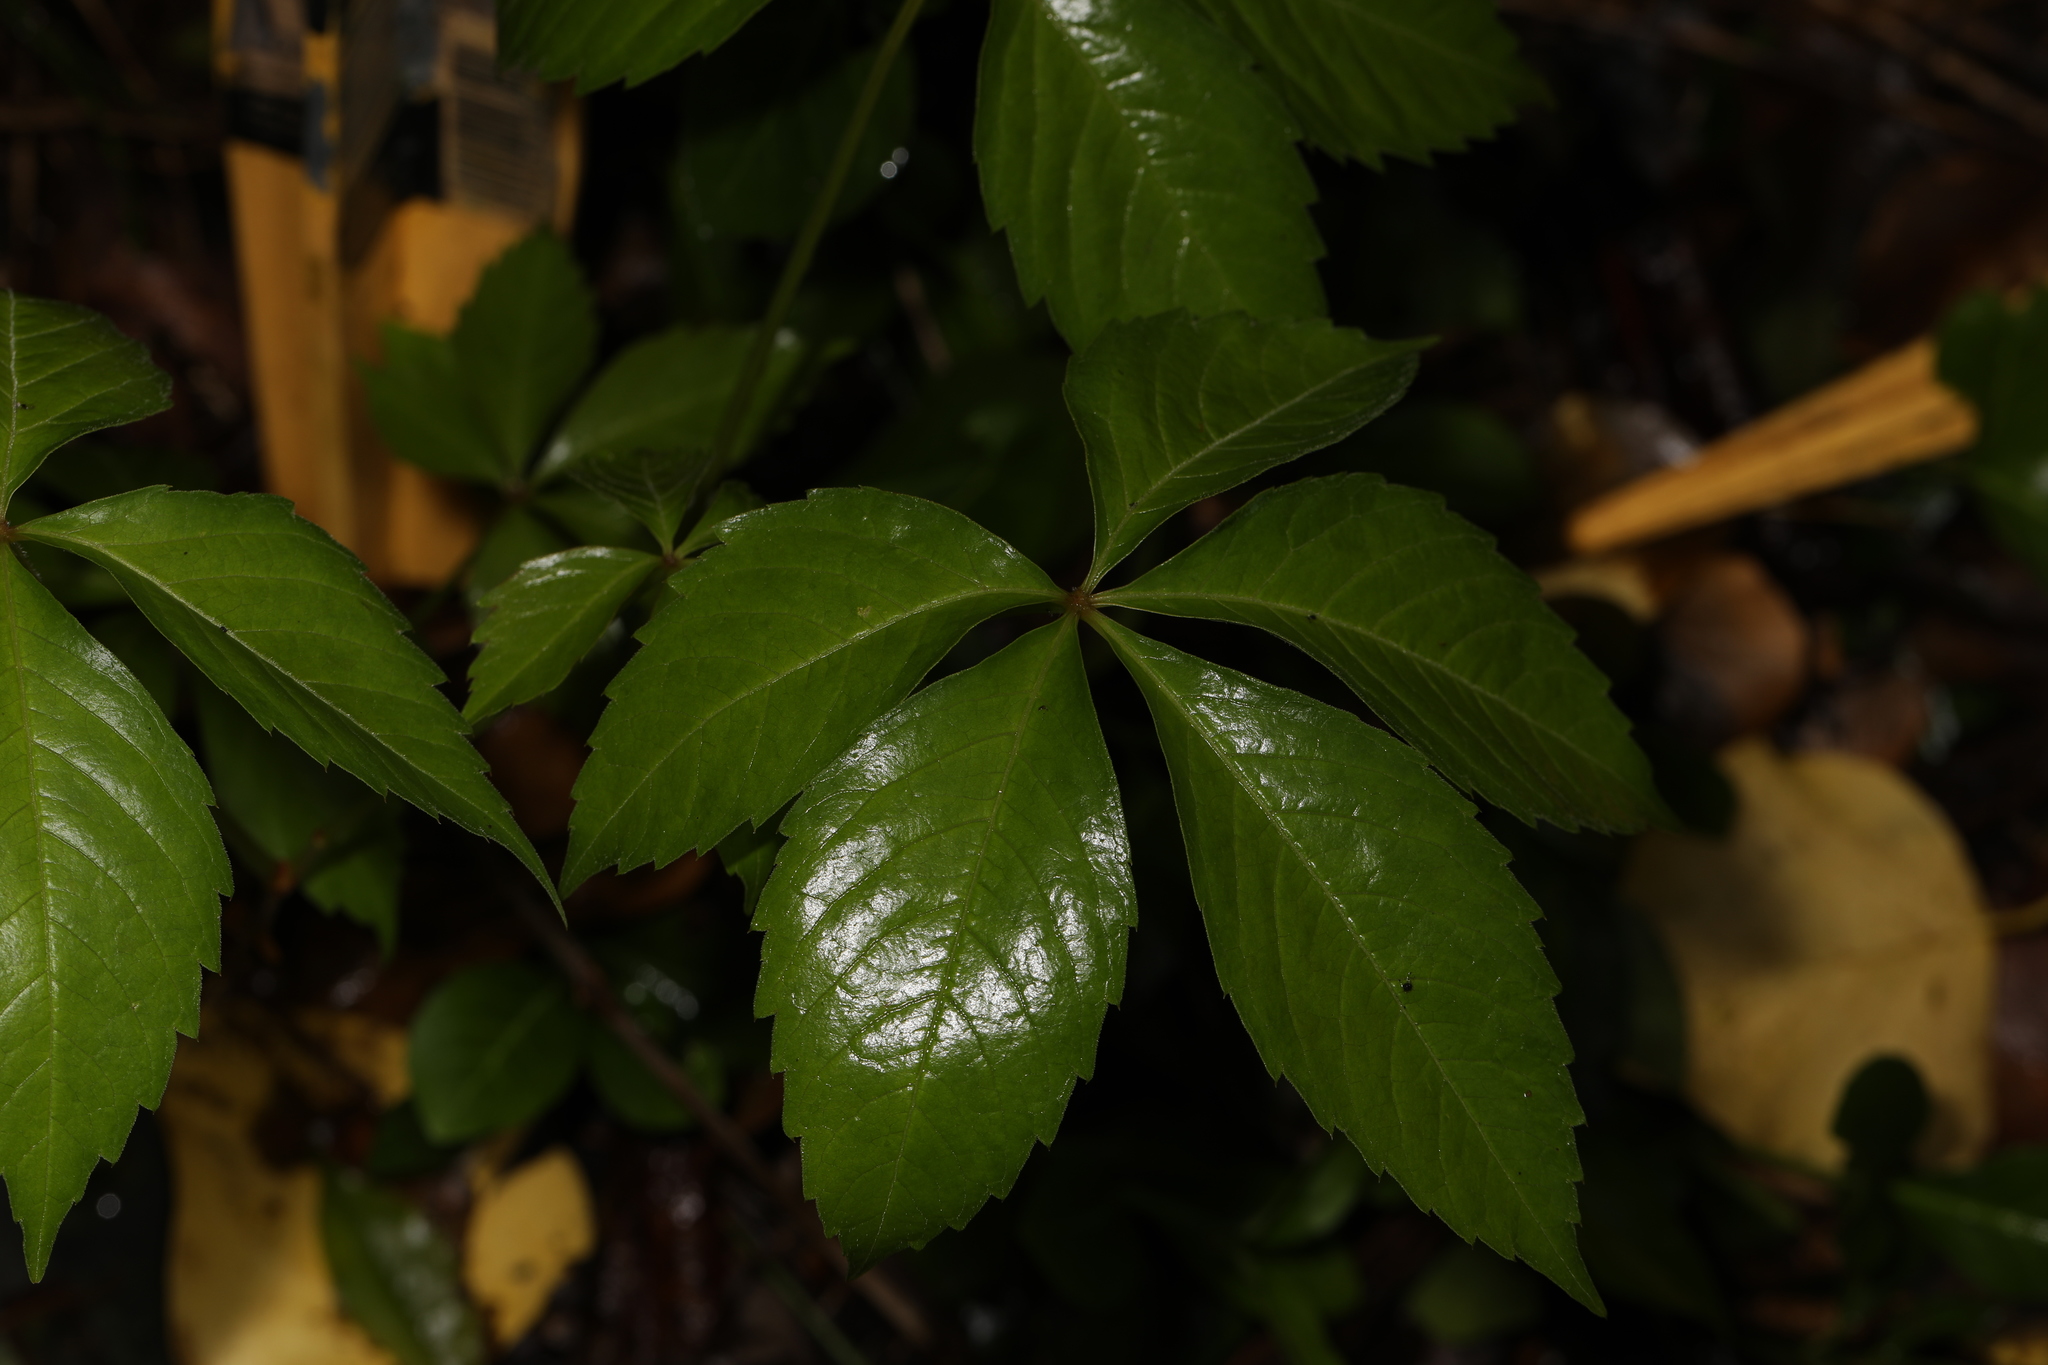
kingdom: Plantae
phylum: Tracheophyta
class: Magnoliopsida
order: Vitales
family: Vitaceae
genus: Parthenocissus
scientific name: Parthenocissus quinquefolia
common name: Virginia-creeper
